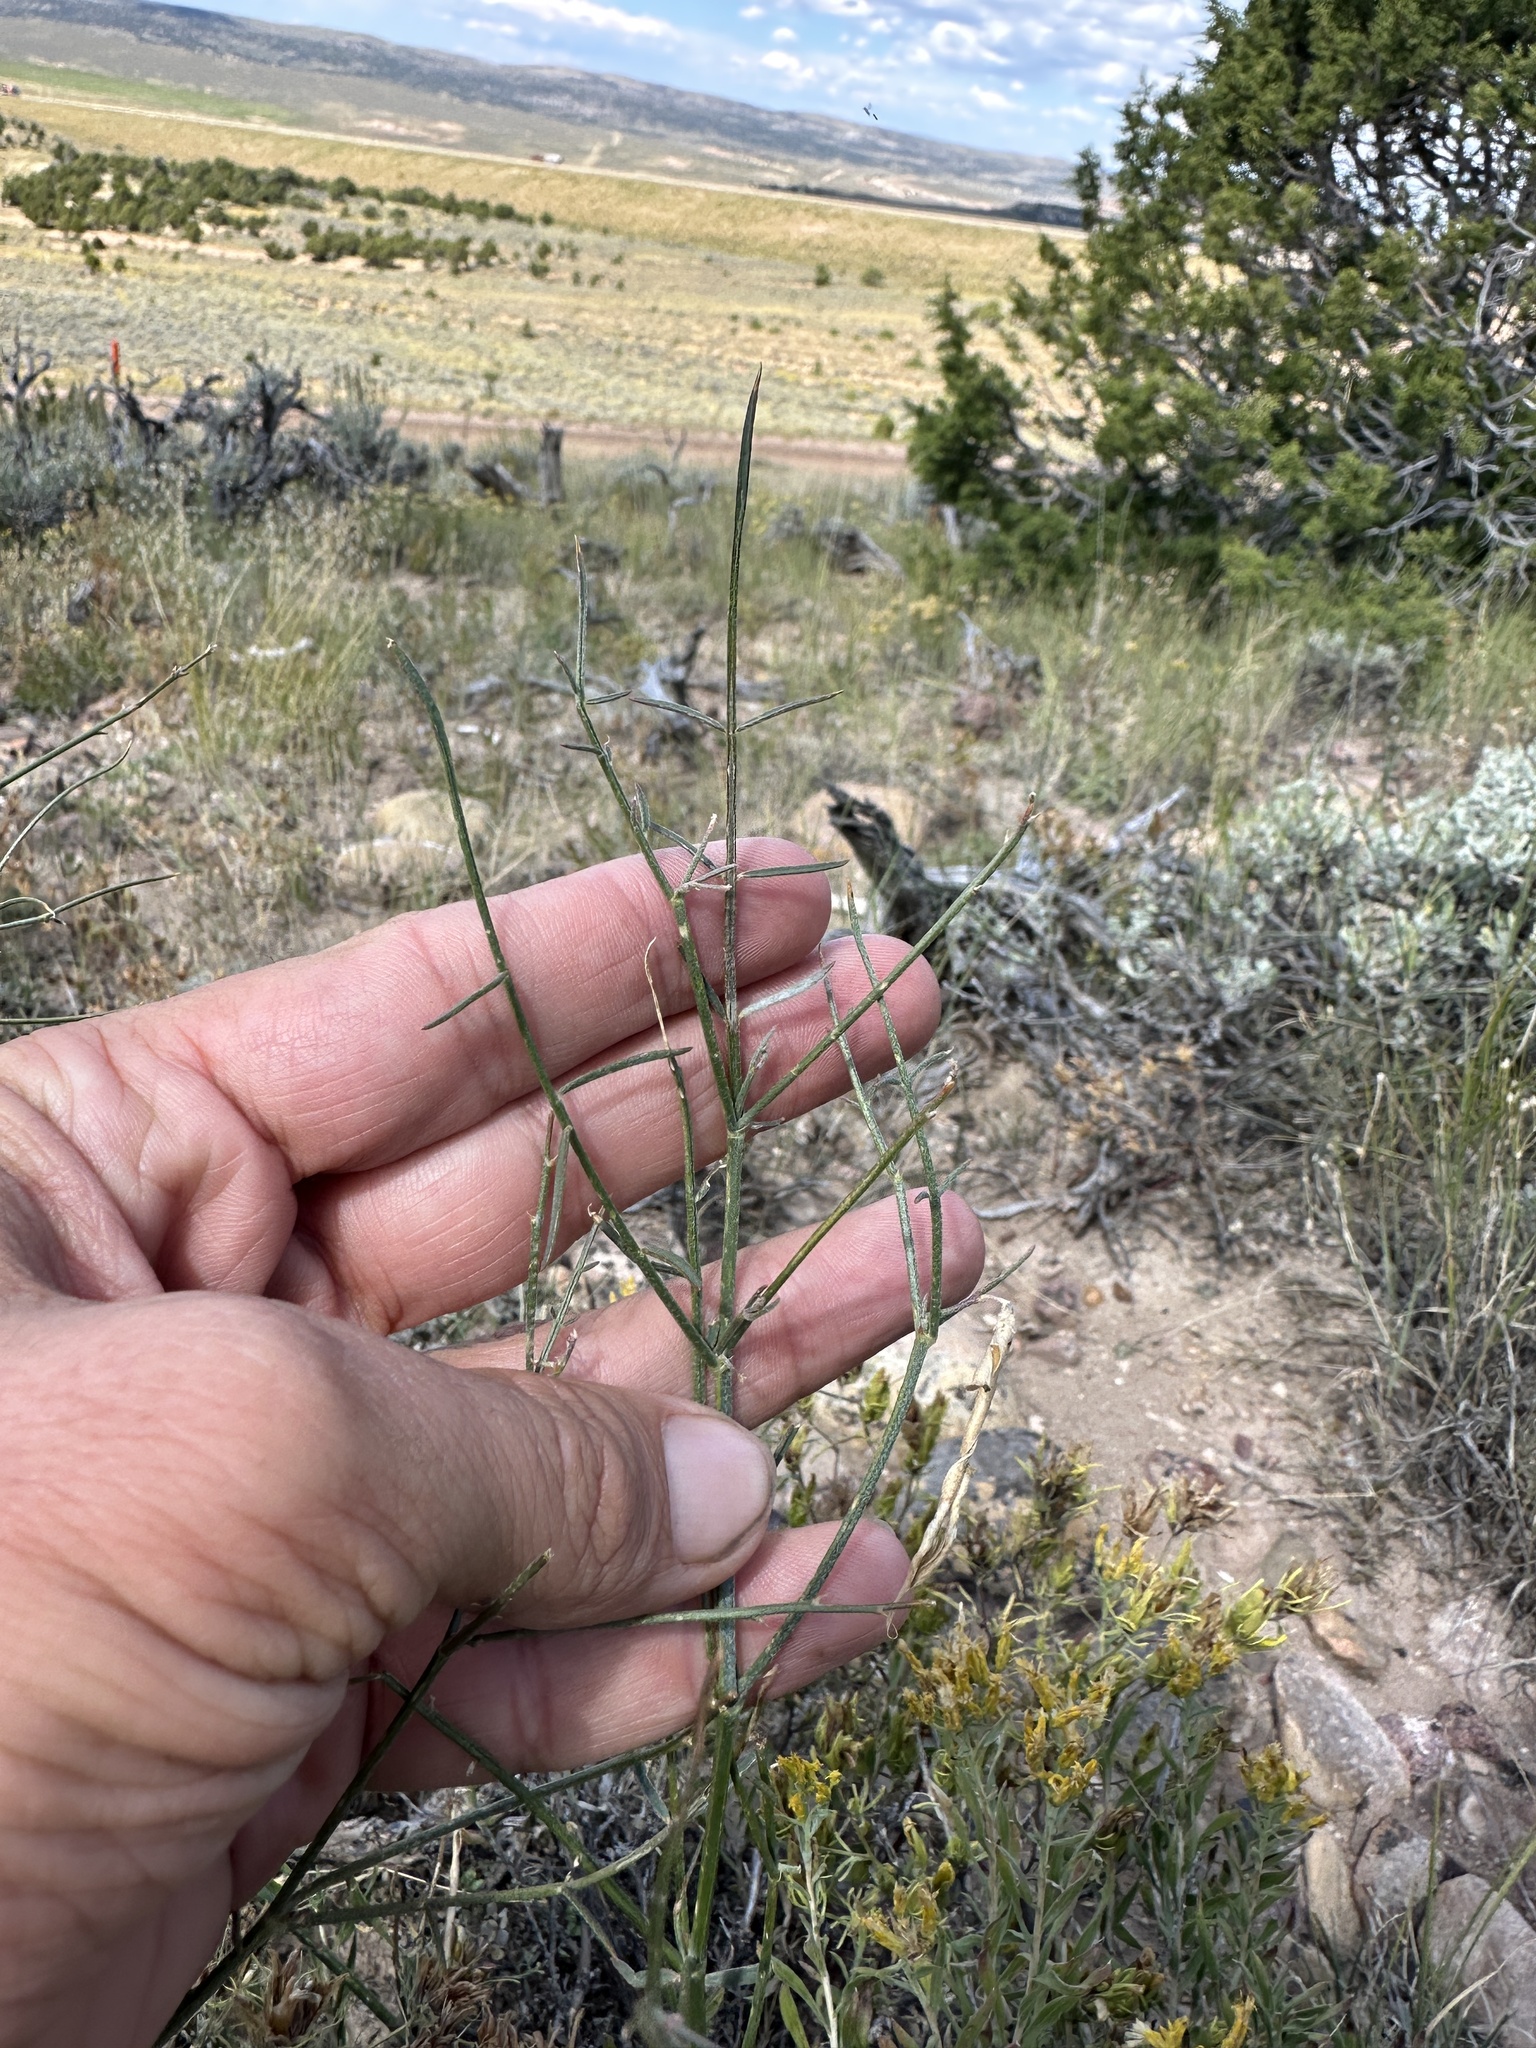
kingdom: Plantae
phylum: Tracheophyta
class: Magnoliopsida
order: Fabales
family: Fabaceae
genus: Astragalus
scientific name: Astragalus convallarius
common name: Lesser rushy milk-vetch
